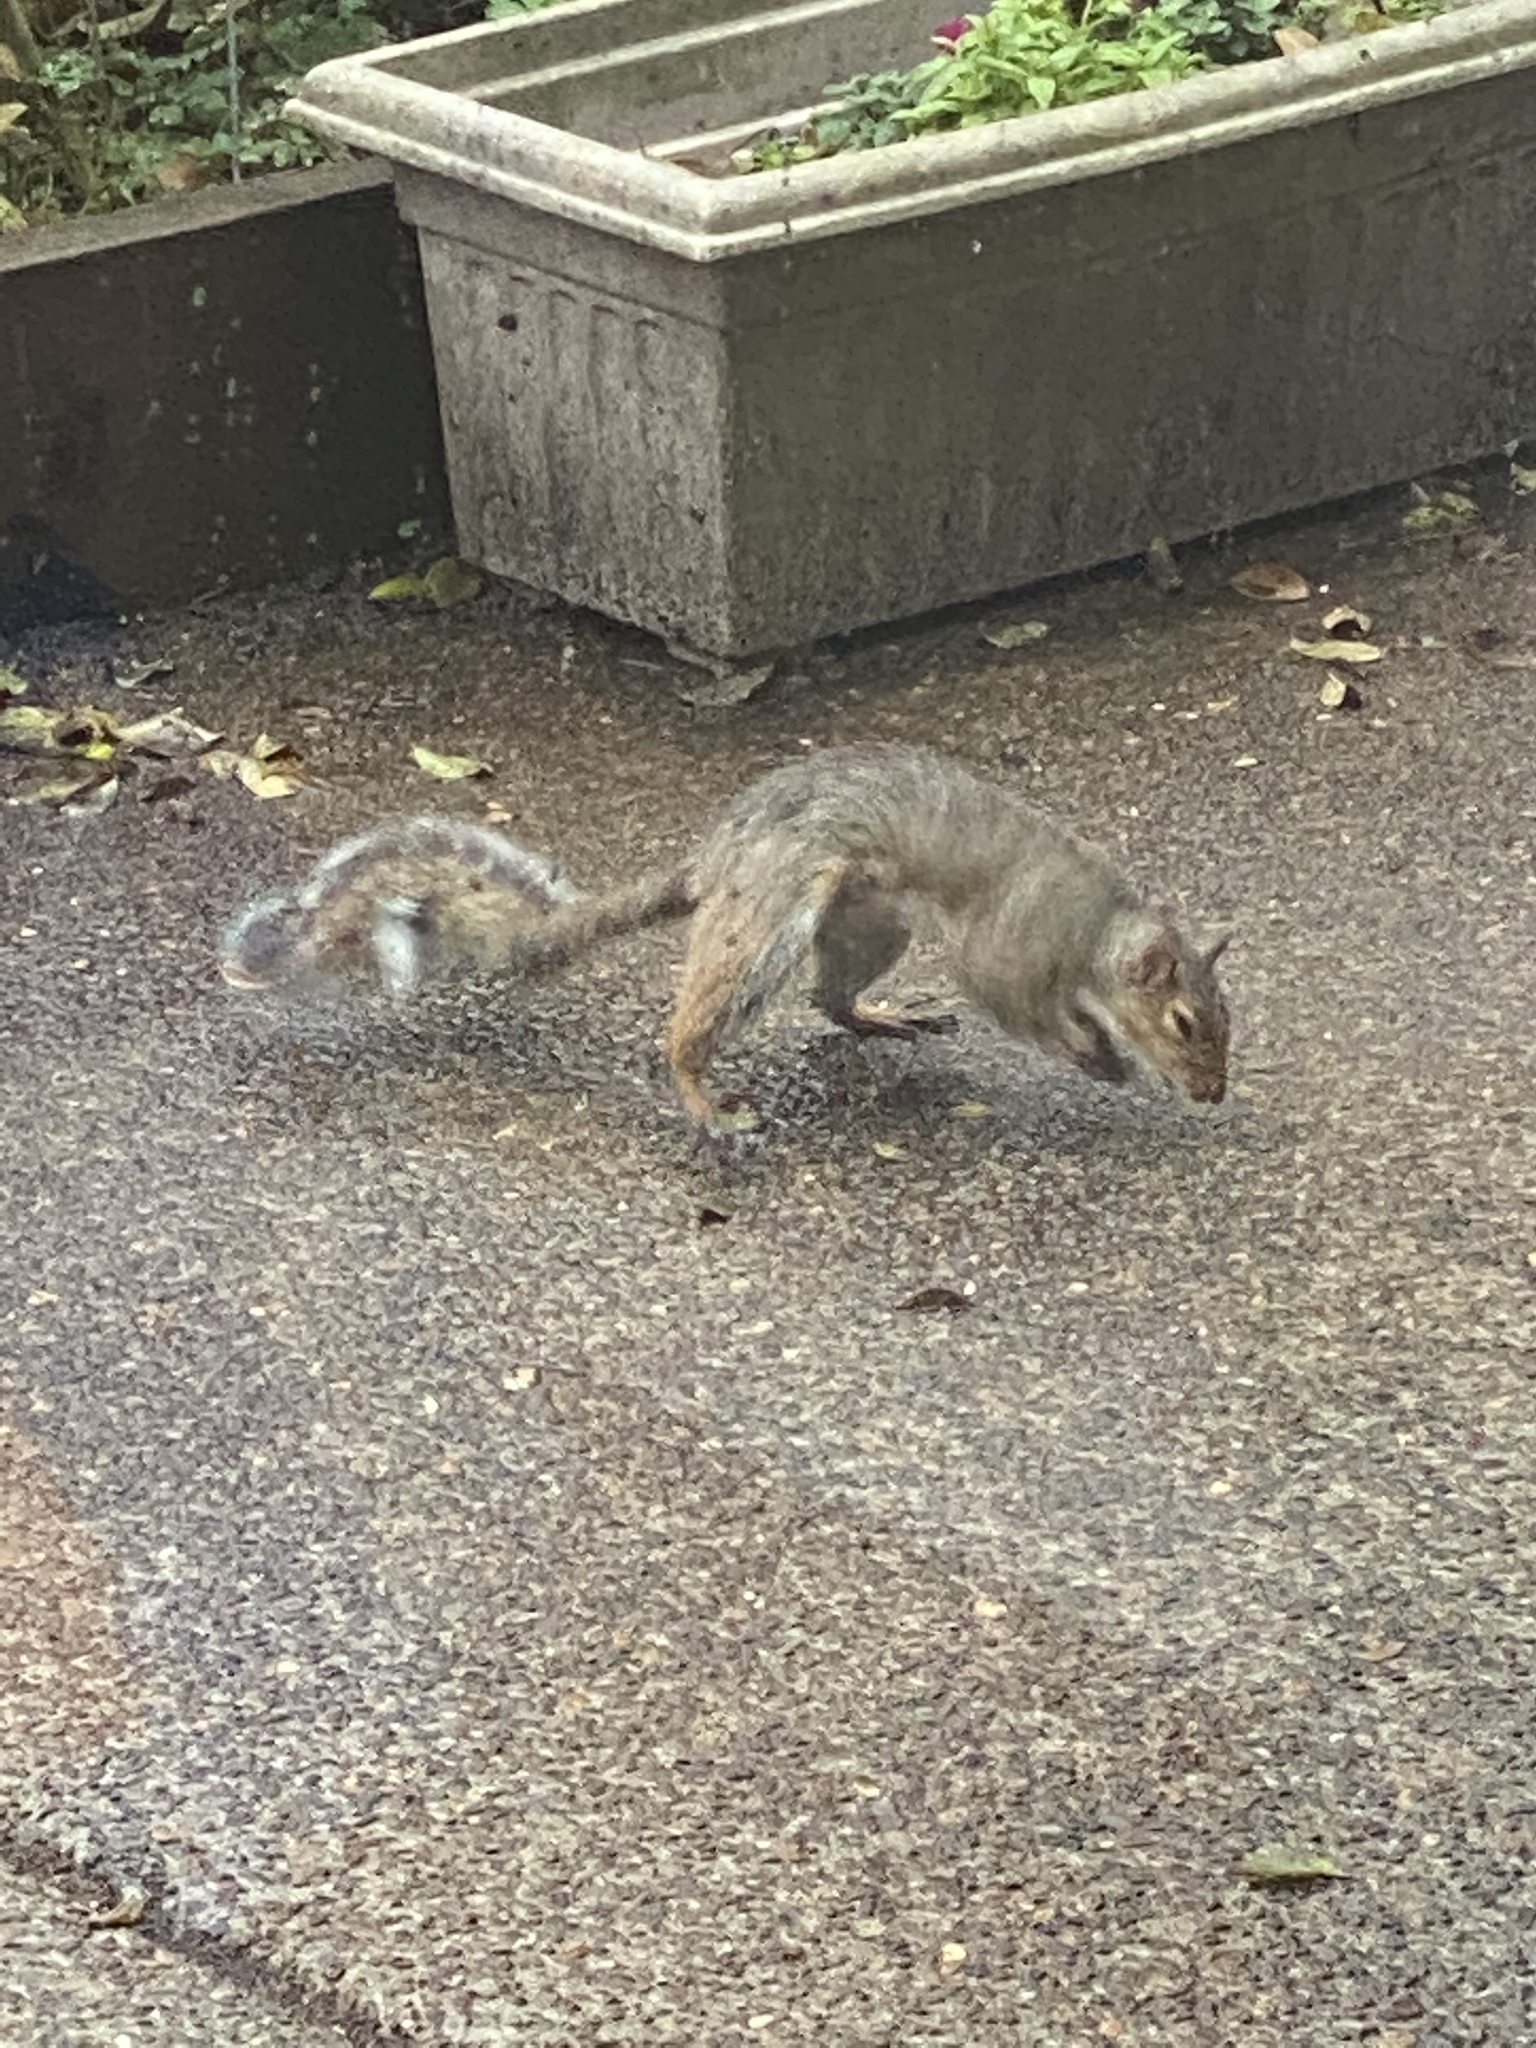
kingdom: Animalia
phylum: Chordata
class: Mammalia
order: Rodentia
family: Sciuridae
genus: Sciurus
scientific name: Sciurus carolinensis
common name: Eastern gray squirrel
